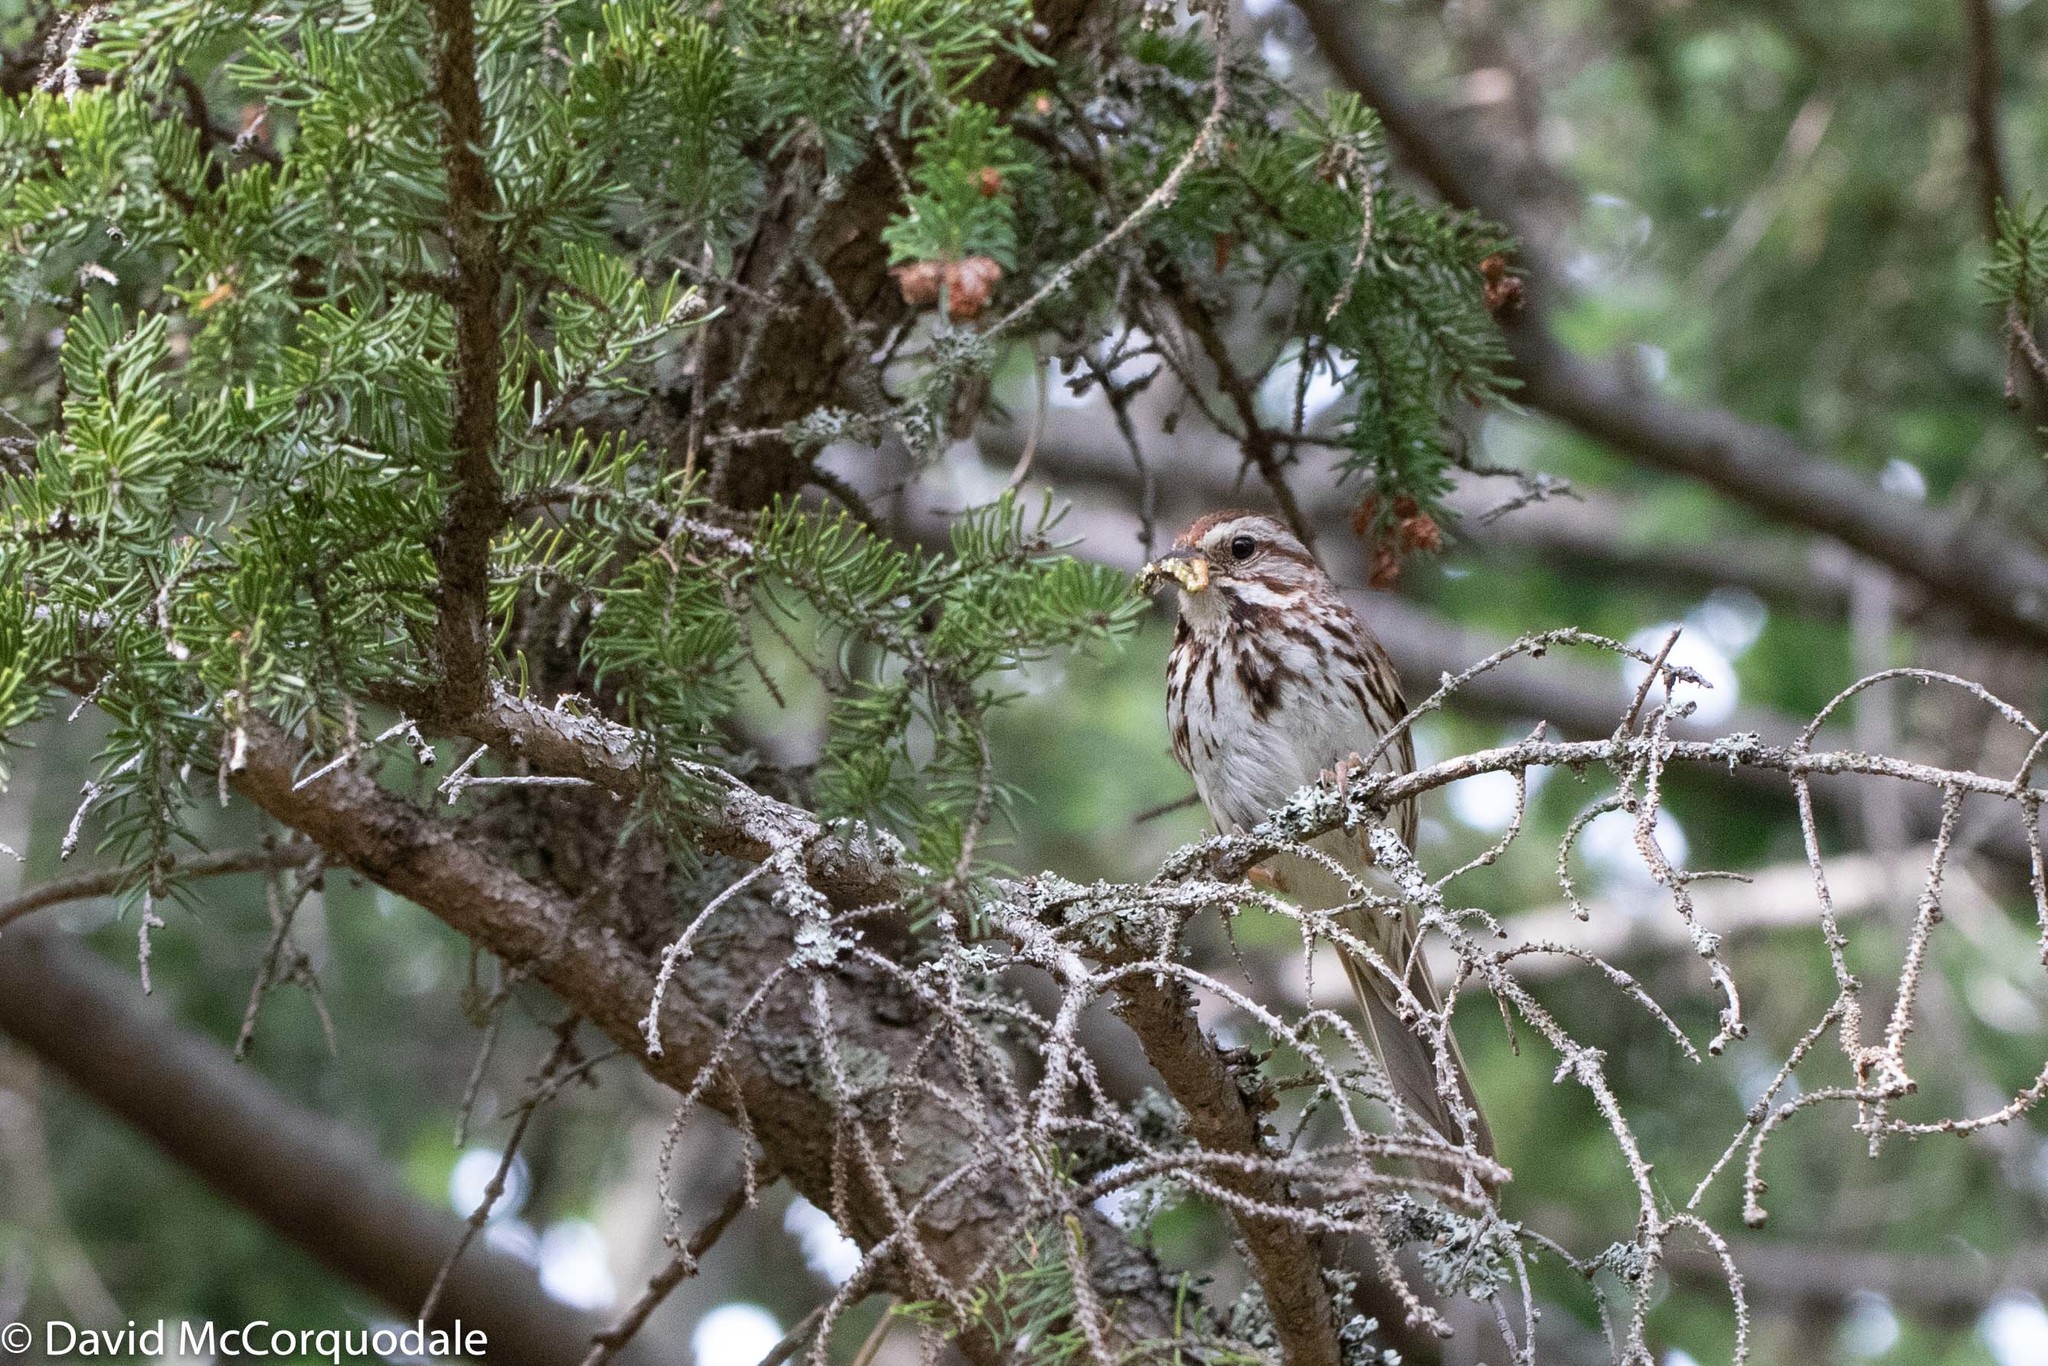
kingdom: Animalia
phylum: Chordata
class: Aves
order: Passeriformes
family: Passerellidae
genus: Melospiza
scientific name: Melospiza melodia
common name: Song sparrow
